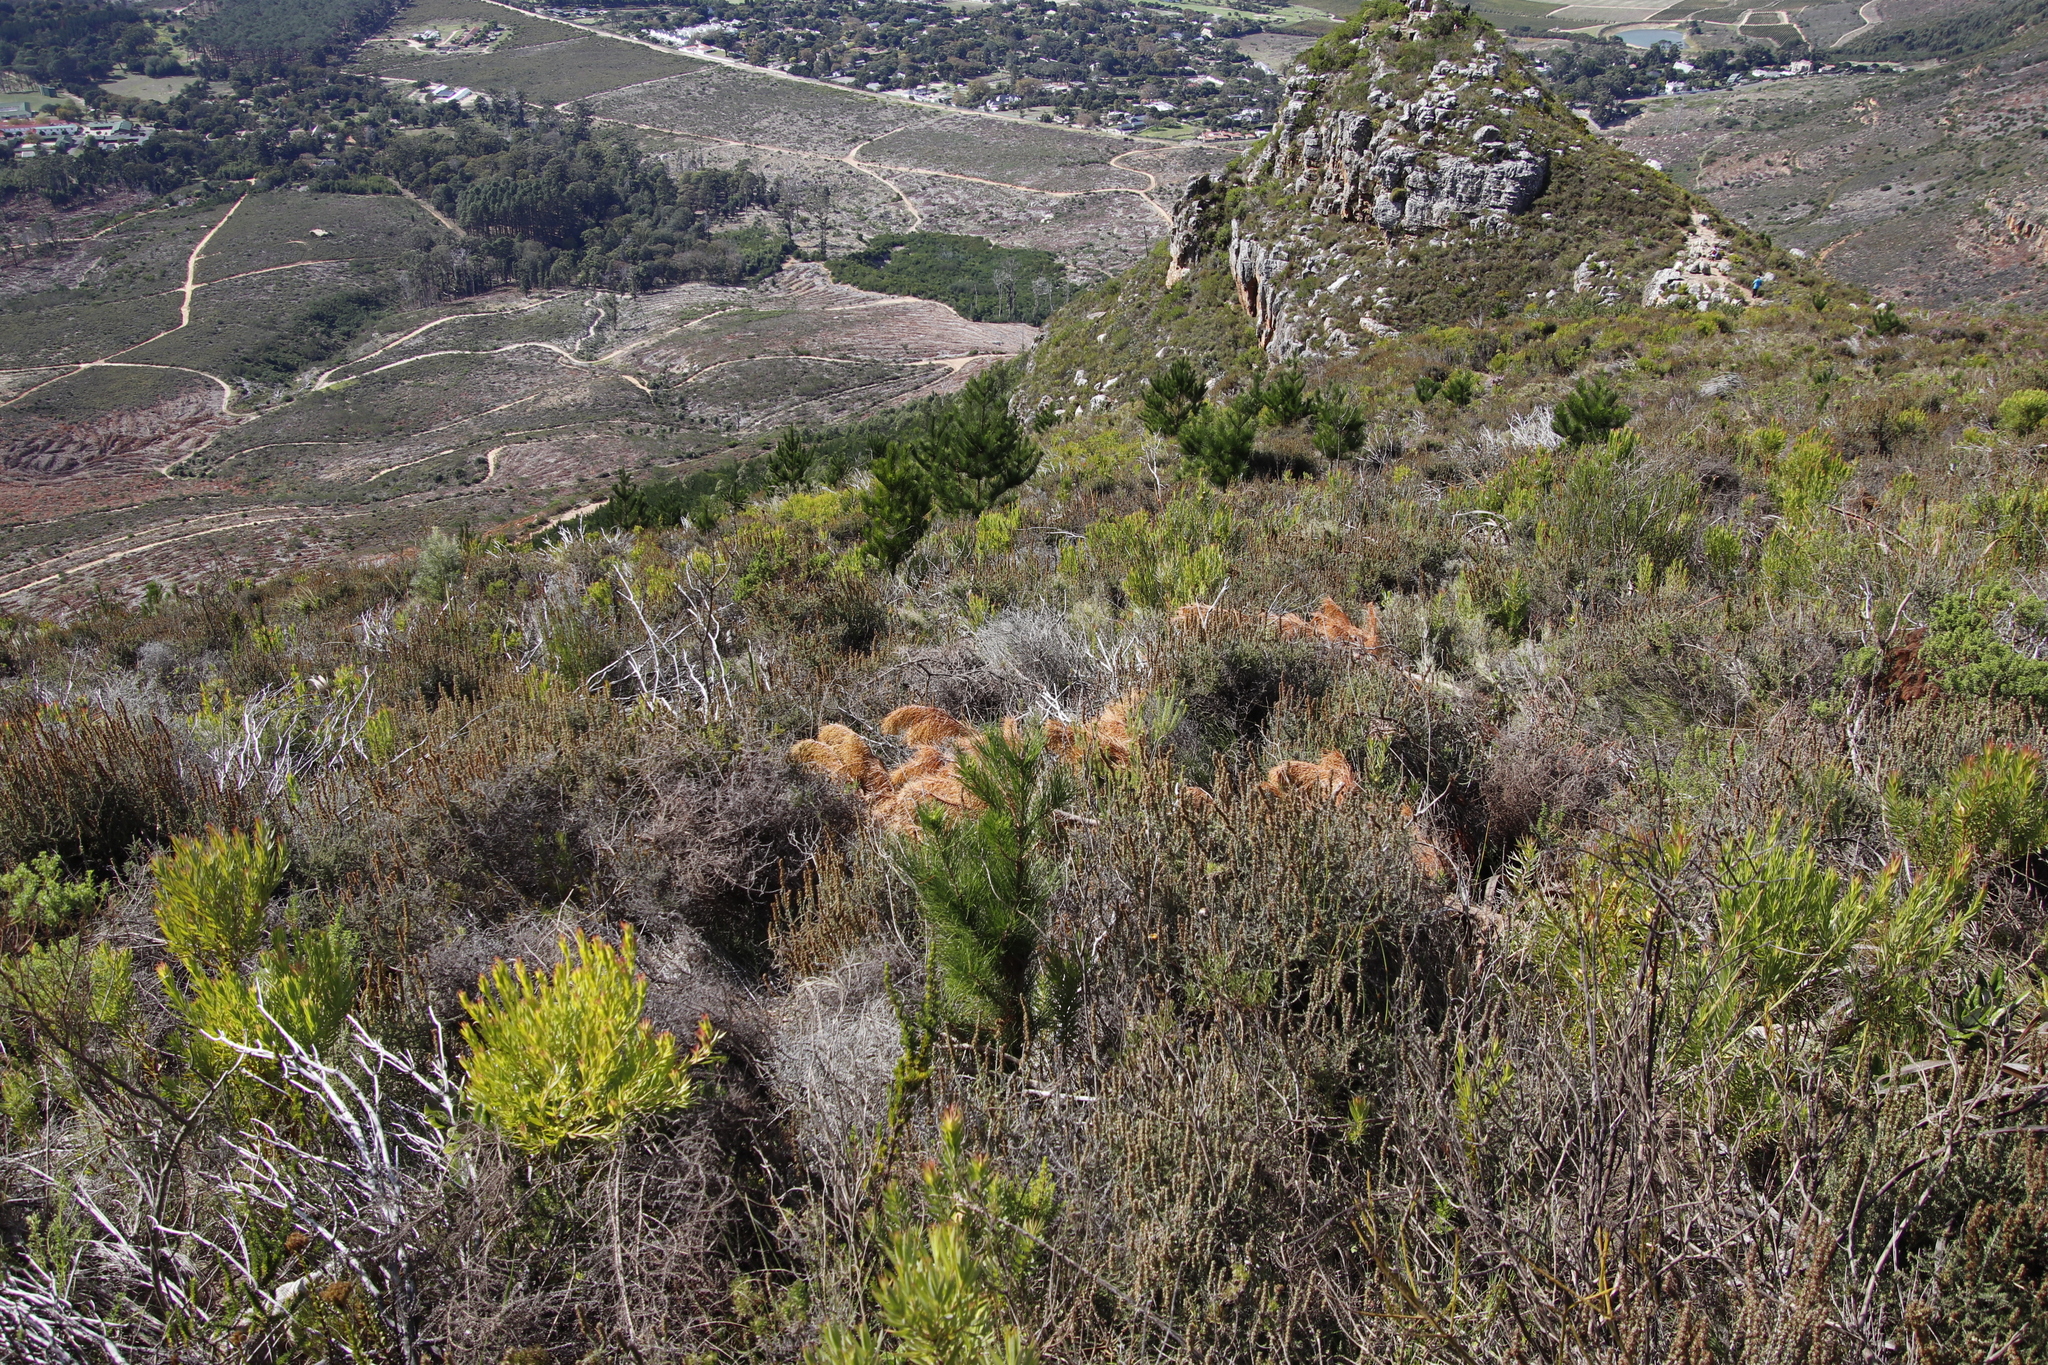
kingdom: Plantae
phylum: Tracheophyta
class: Pinopsida
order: Pinales
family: Pinaceae
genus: Pinus
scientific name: Pinus radiata
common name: Monterey pine
